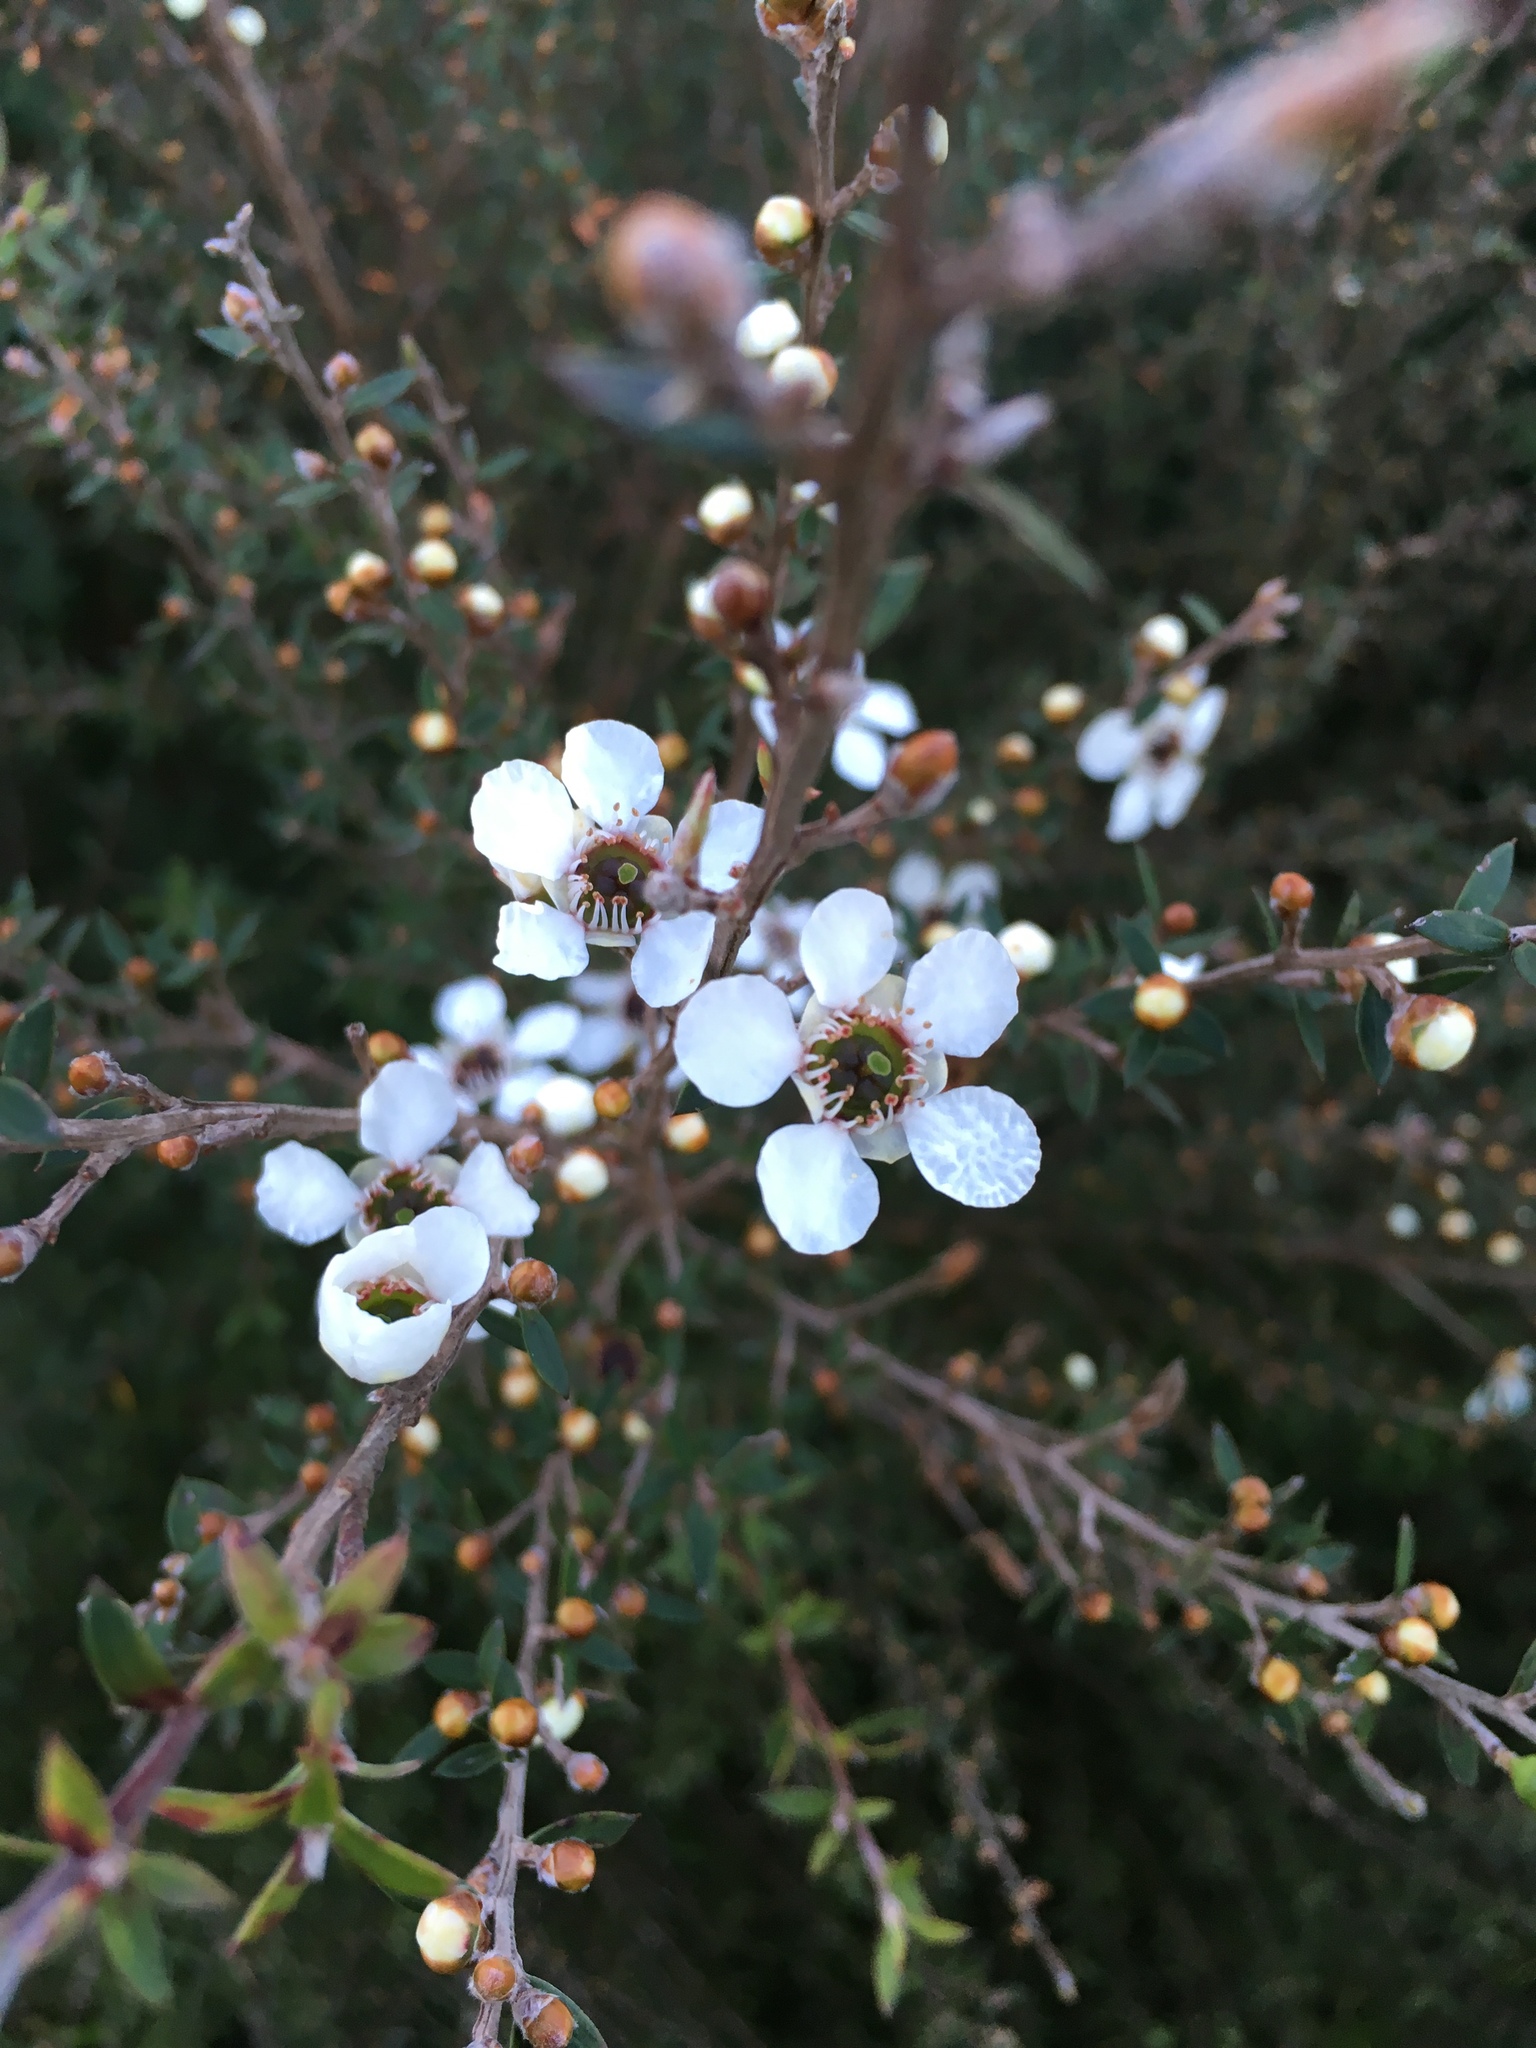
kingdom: Plantae
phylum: Tracheophyta
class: Magnoliopsida
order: Myrtales
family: Myrtaceae
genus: Leptospermum
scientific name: Leptospermum scoparium
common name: Broom tea-tree
